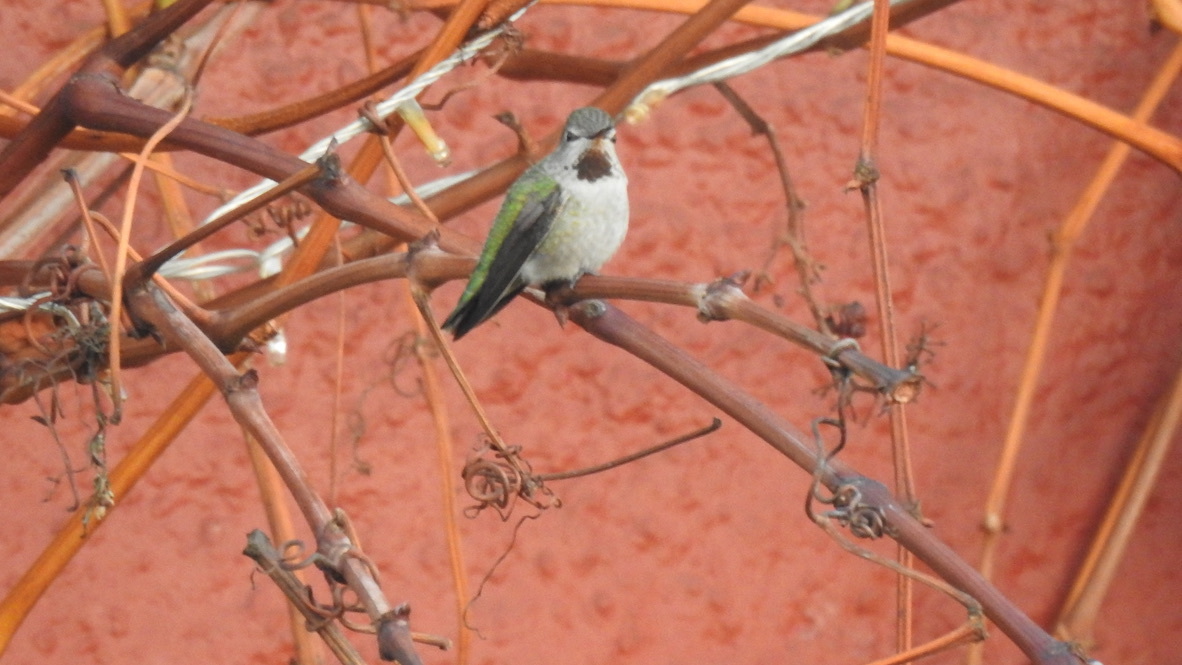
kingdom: Animalia
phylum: Chordata
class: Aves
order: Apodiformes
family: Trochilidae
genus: Calypte
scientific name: Calypte anna
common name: Anna's hummingbird
